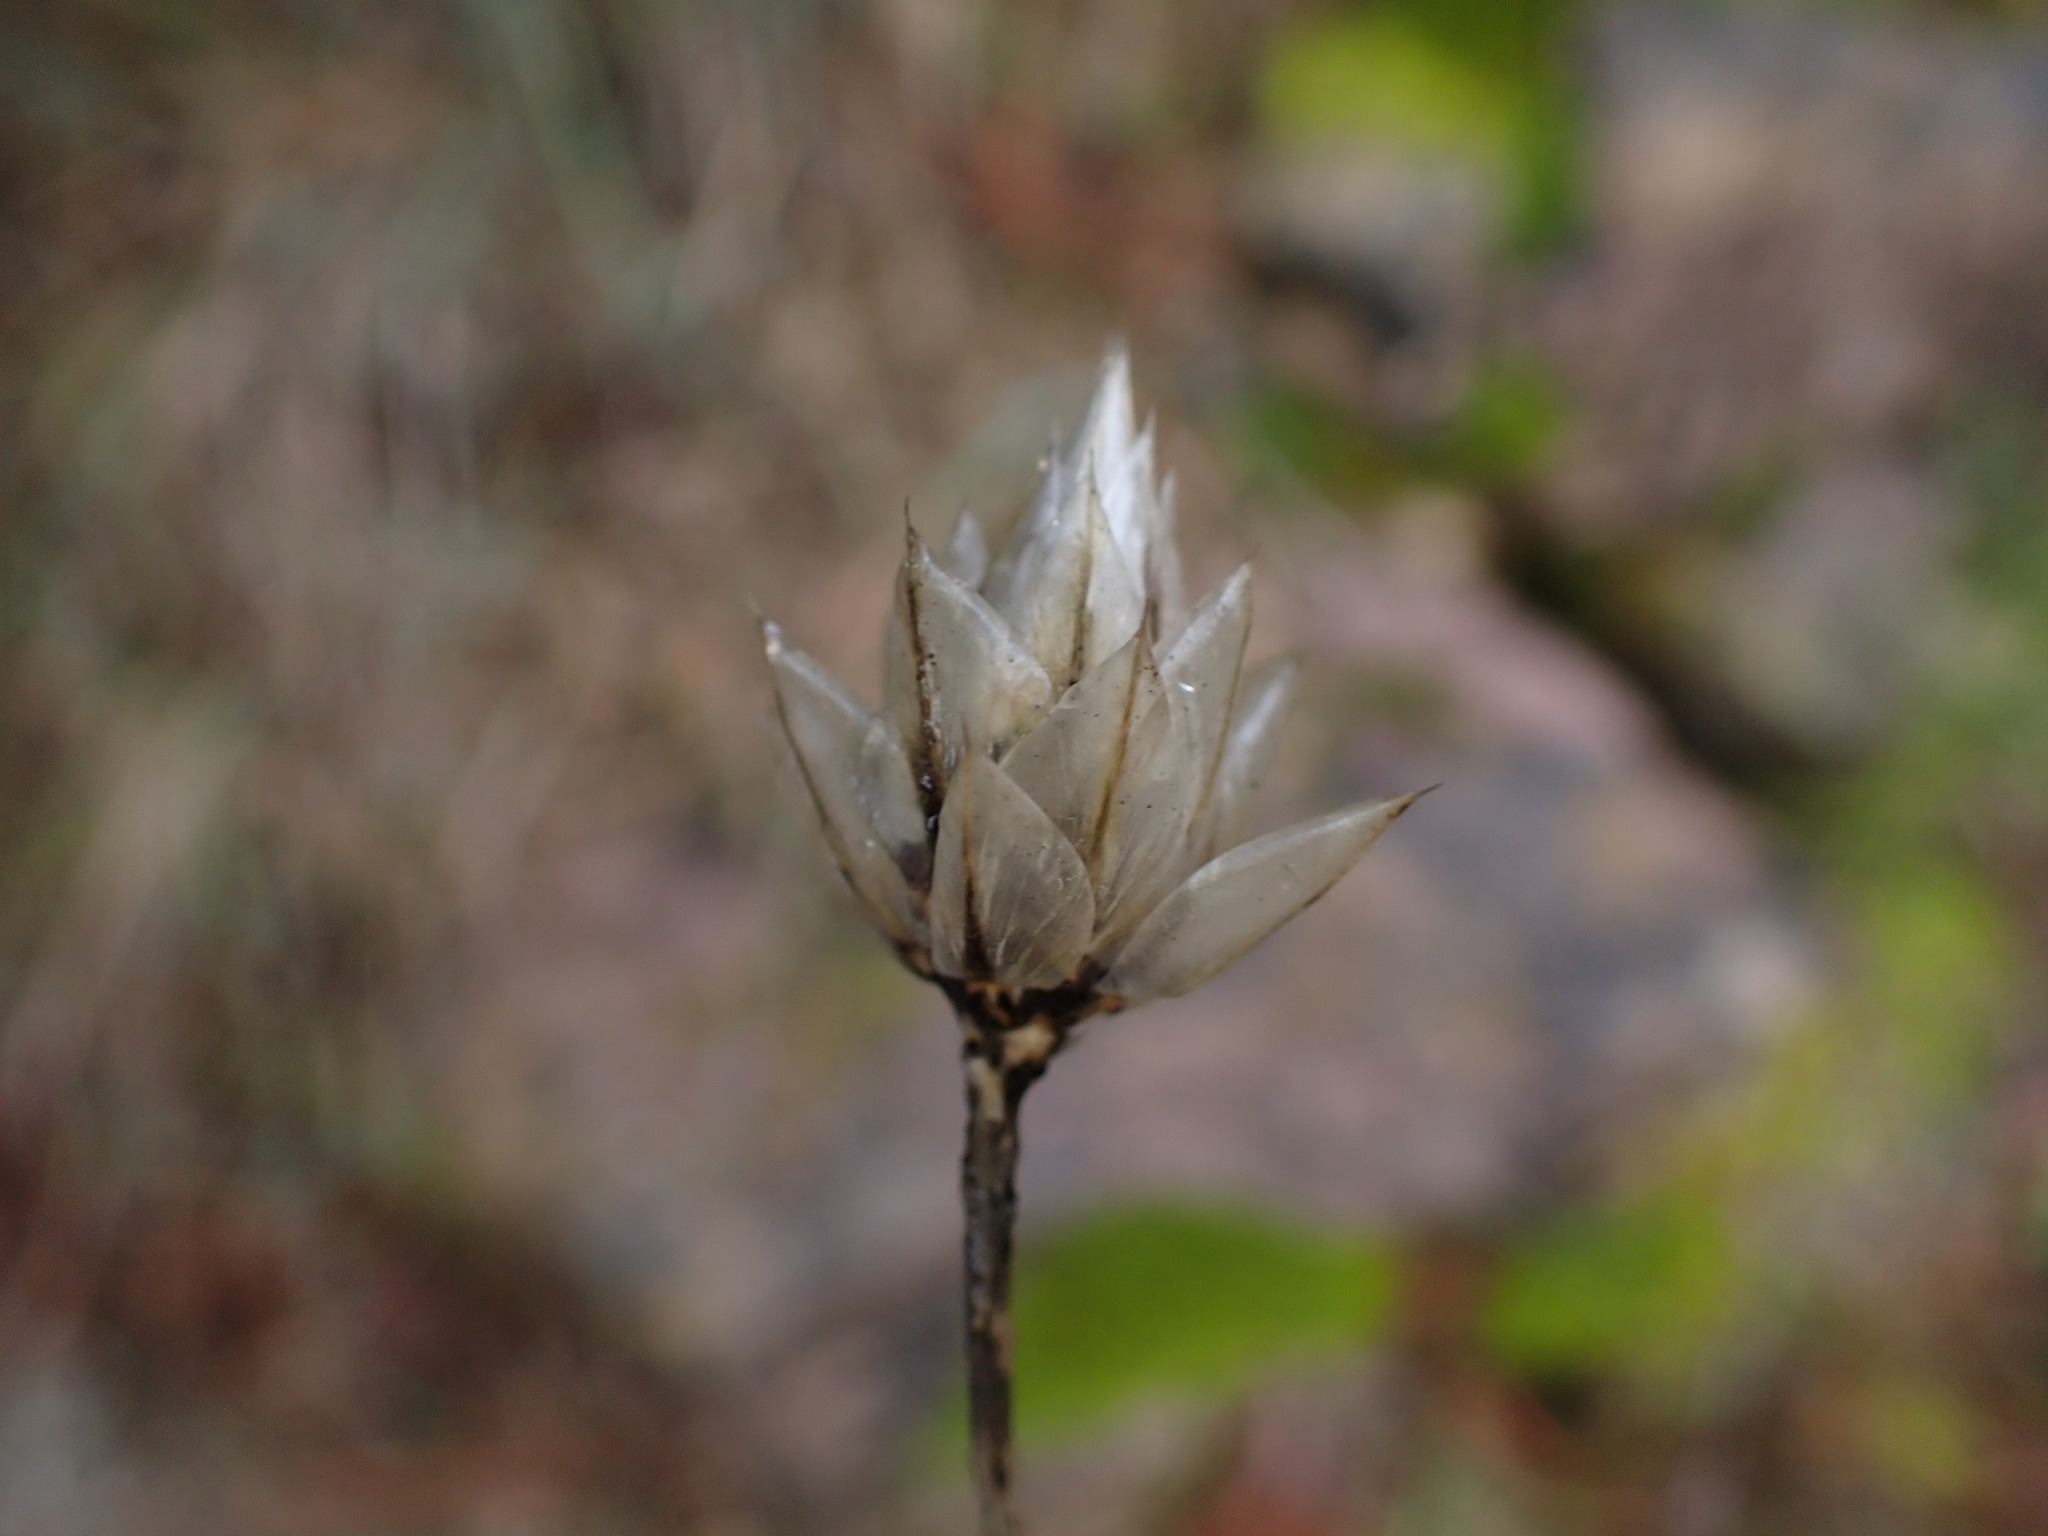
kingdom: Plantae
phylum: Tracheophyta
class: Magnoliopsida
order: Asterales
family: Asteraceae
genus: Xeranthemum
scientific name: Xeranthemum inapertum
